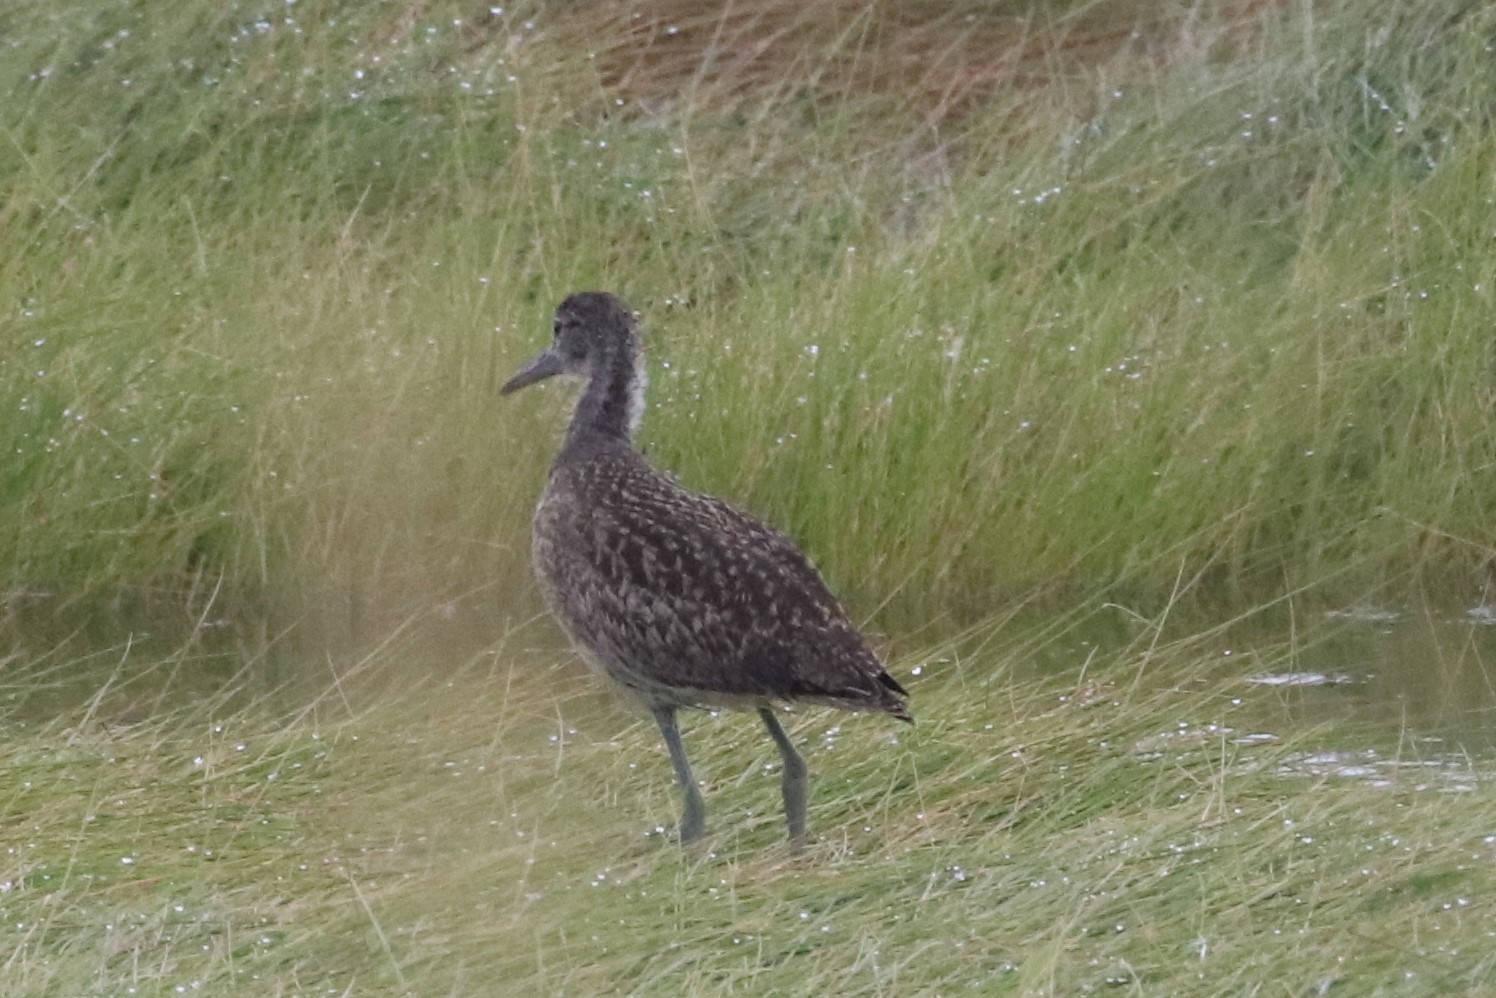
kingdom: Animalia
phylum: Chordata
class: Aves
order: Charadriiformes
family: Scolopacidae
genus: Tringa
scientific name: Tringa semipalmata
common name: Willet
